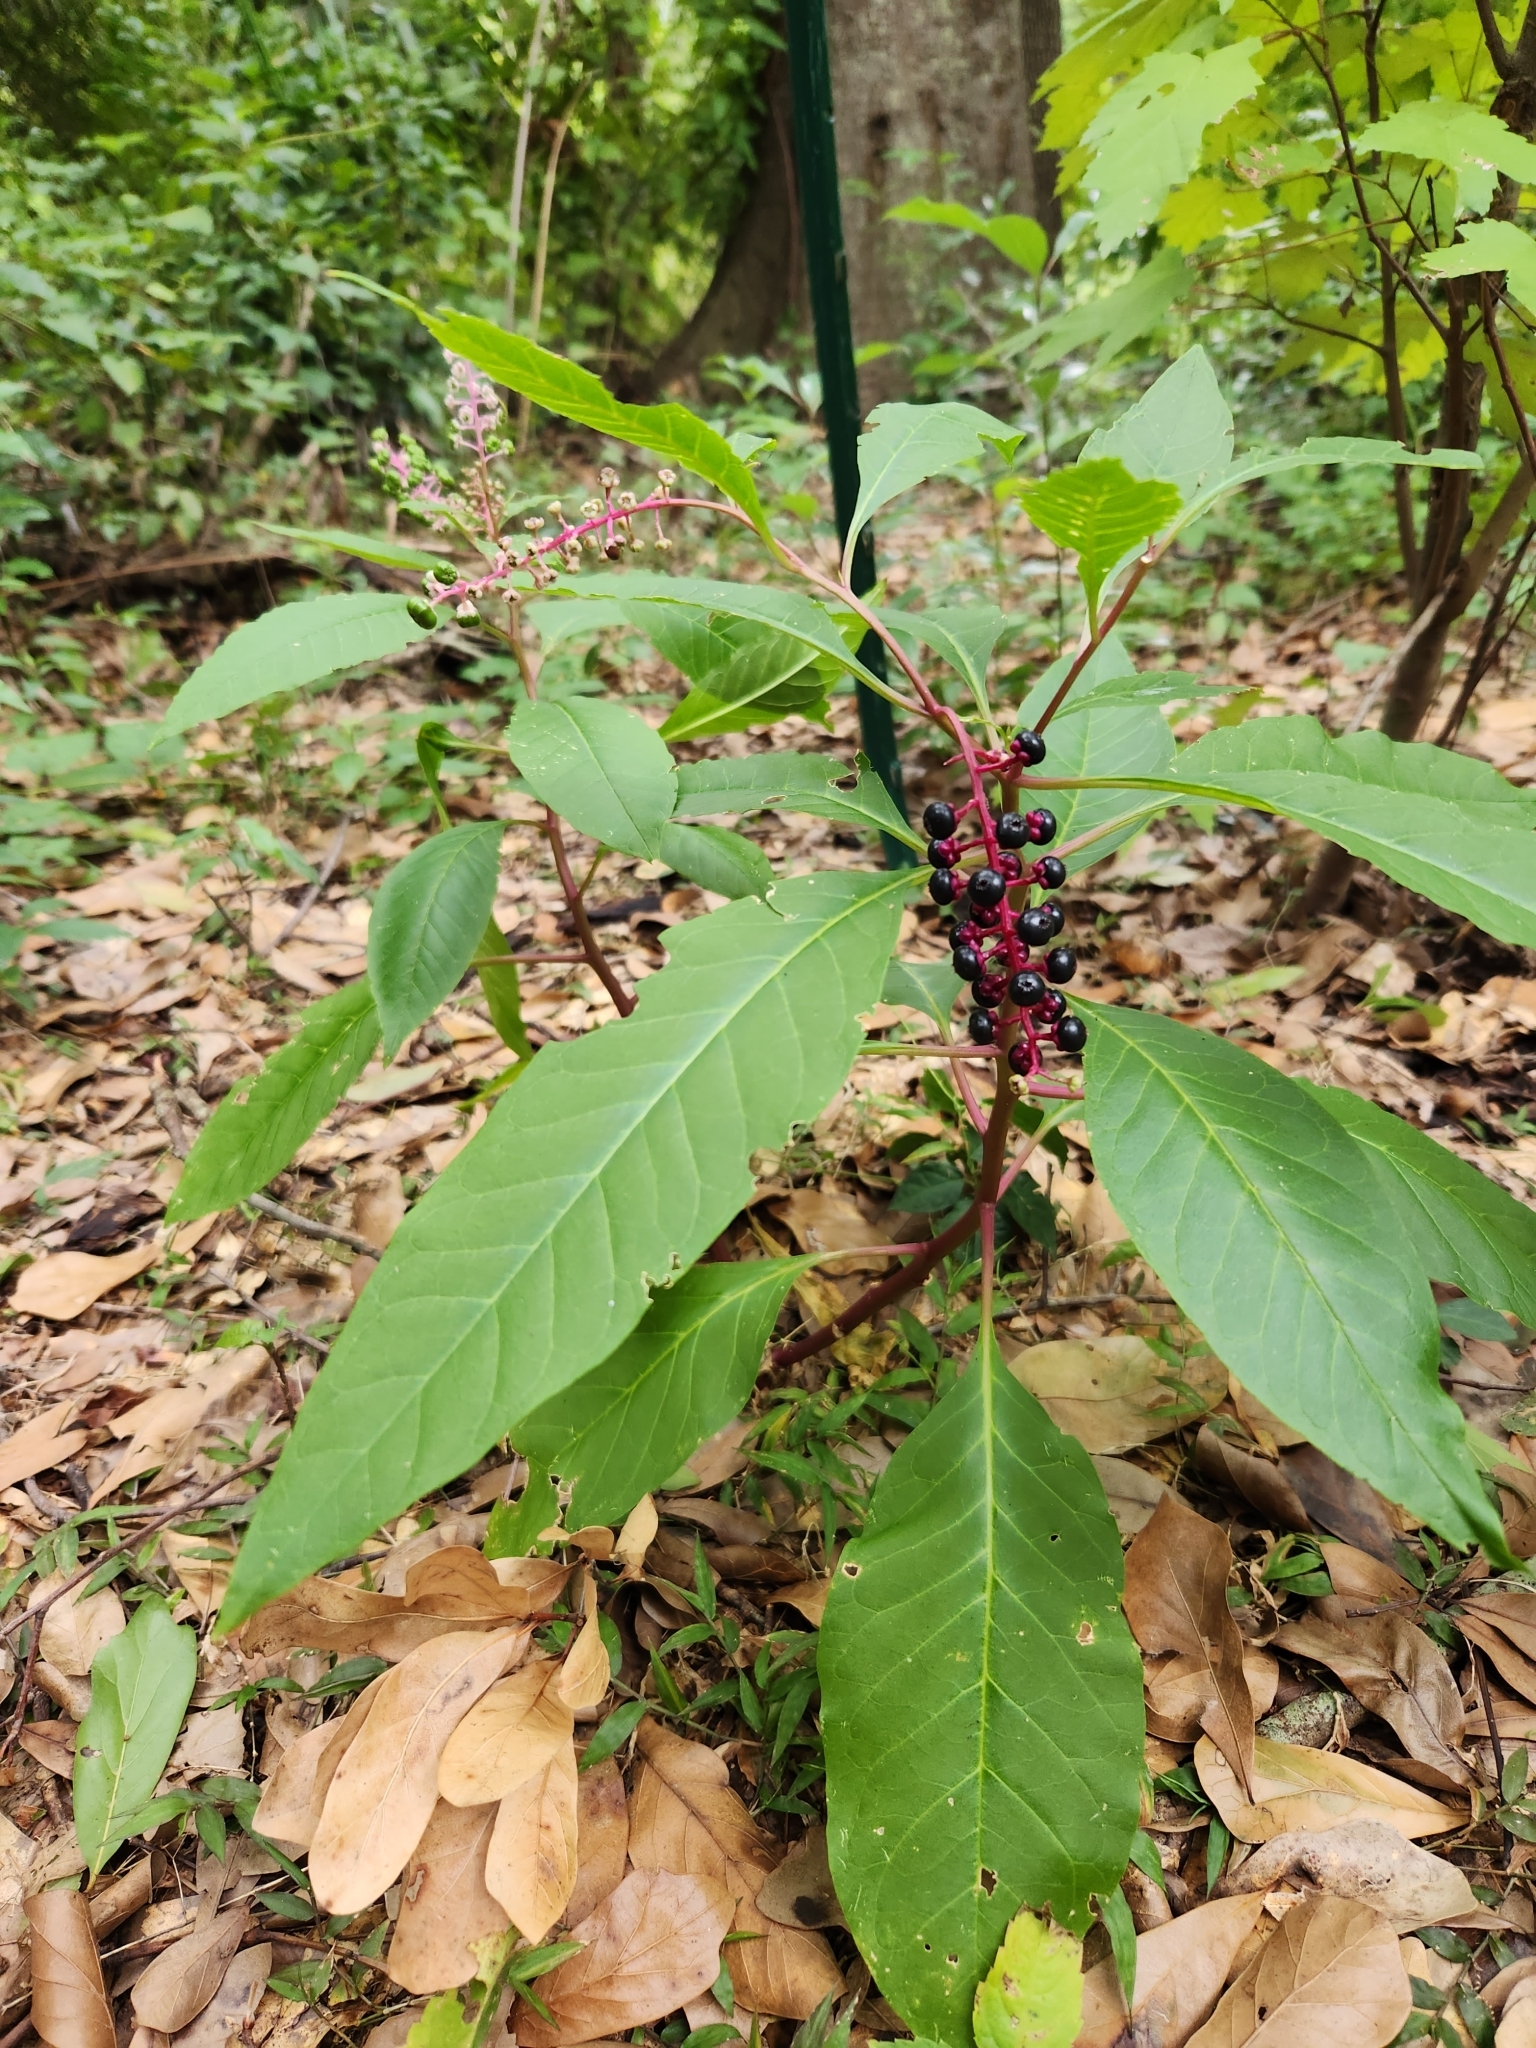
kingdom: Plantae
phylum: Tracheophyta
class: Magnoliopsida
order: Caryophyllales
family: Phytolaccaceae
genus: Phytolacca
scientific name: Phytolacca americana
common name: American pokeweed
